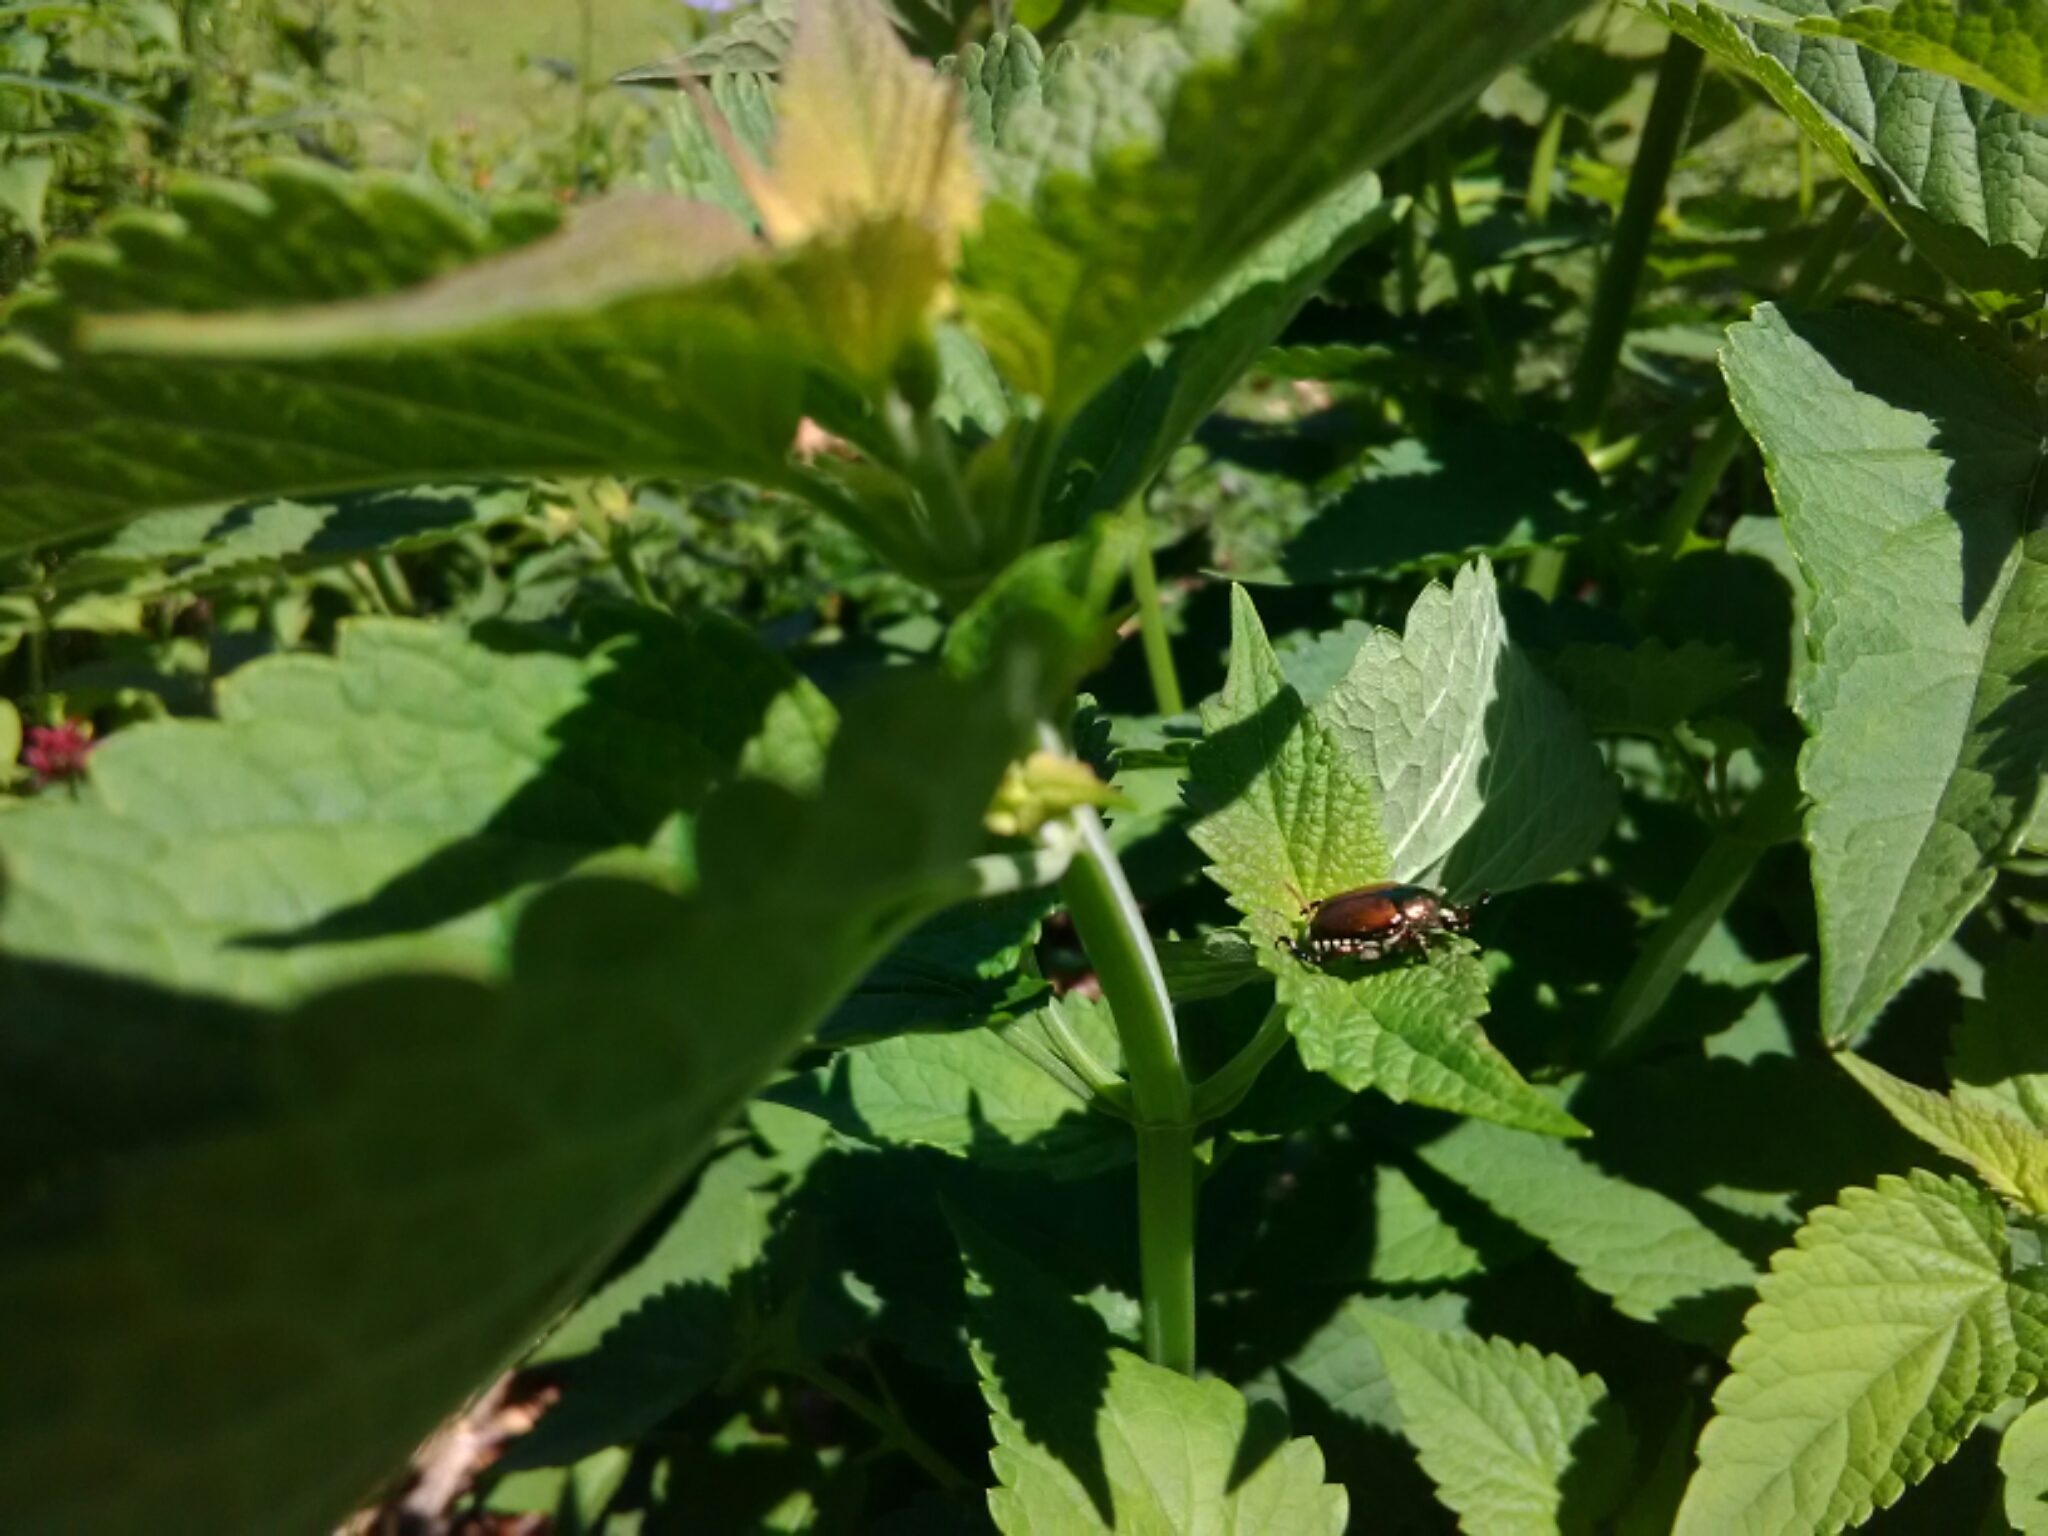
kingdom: Animalia
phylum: Arthropoda
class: Insecta
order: Coleoptera
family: Scarabaeidae
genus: Popillia
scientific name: Popillia japonica
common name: Japanese beetle
